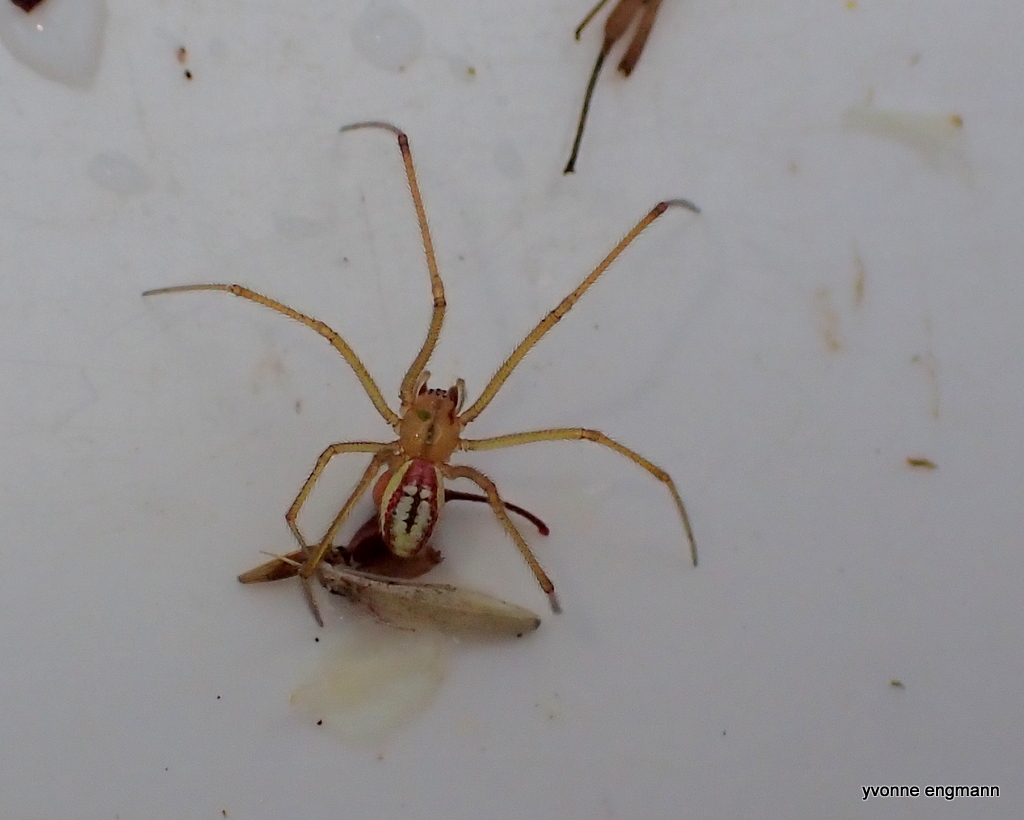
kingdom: Animalia
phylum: Arthropoda
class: Arachnida
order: Araneae
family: Theridiidae
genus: Enoplognatha
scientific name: Enoplognatha ovata
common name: Common candy-striped spider
